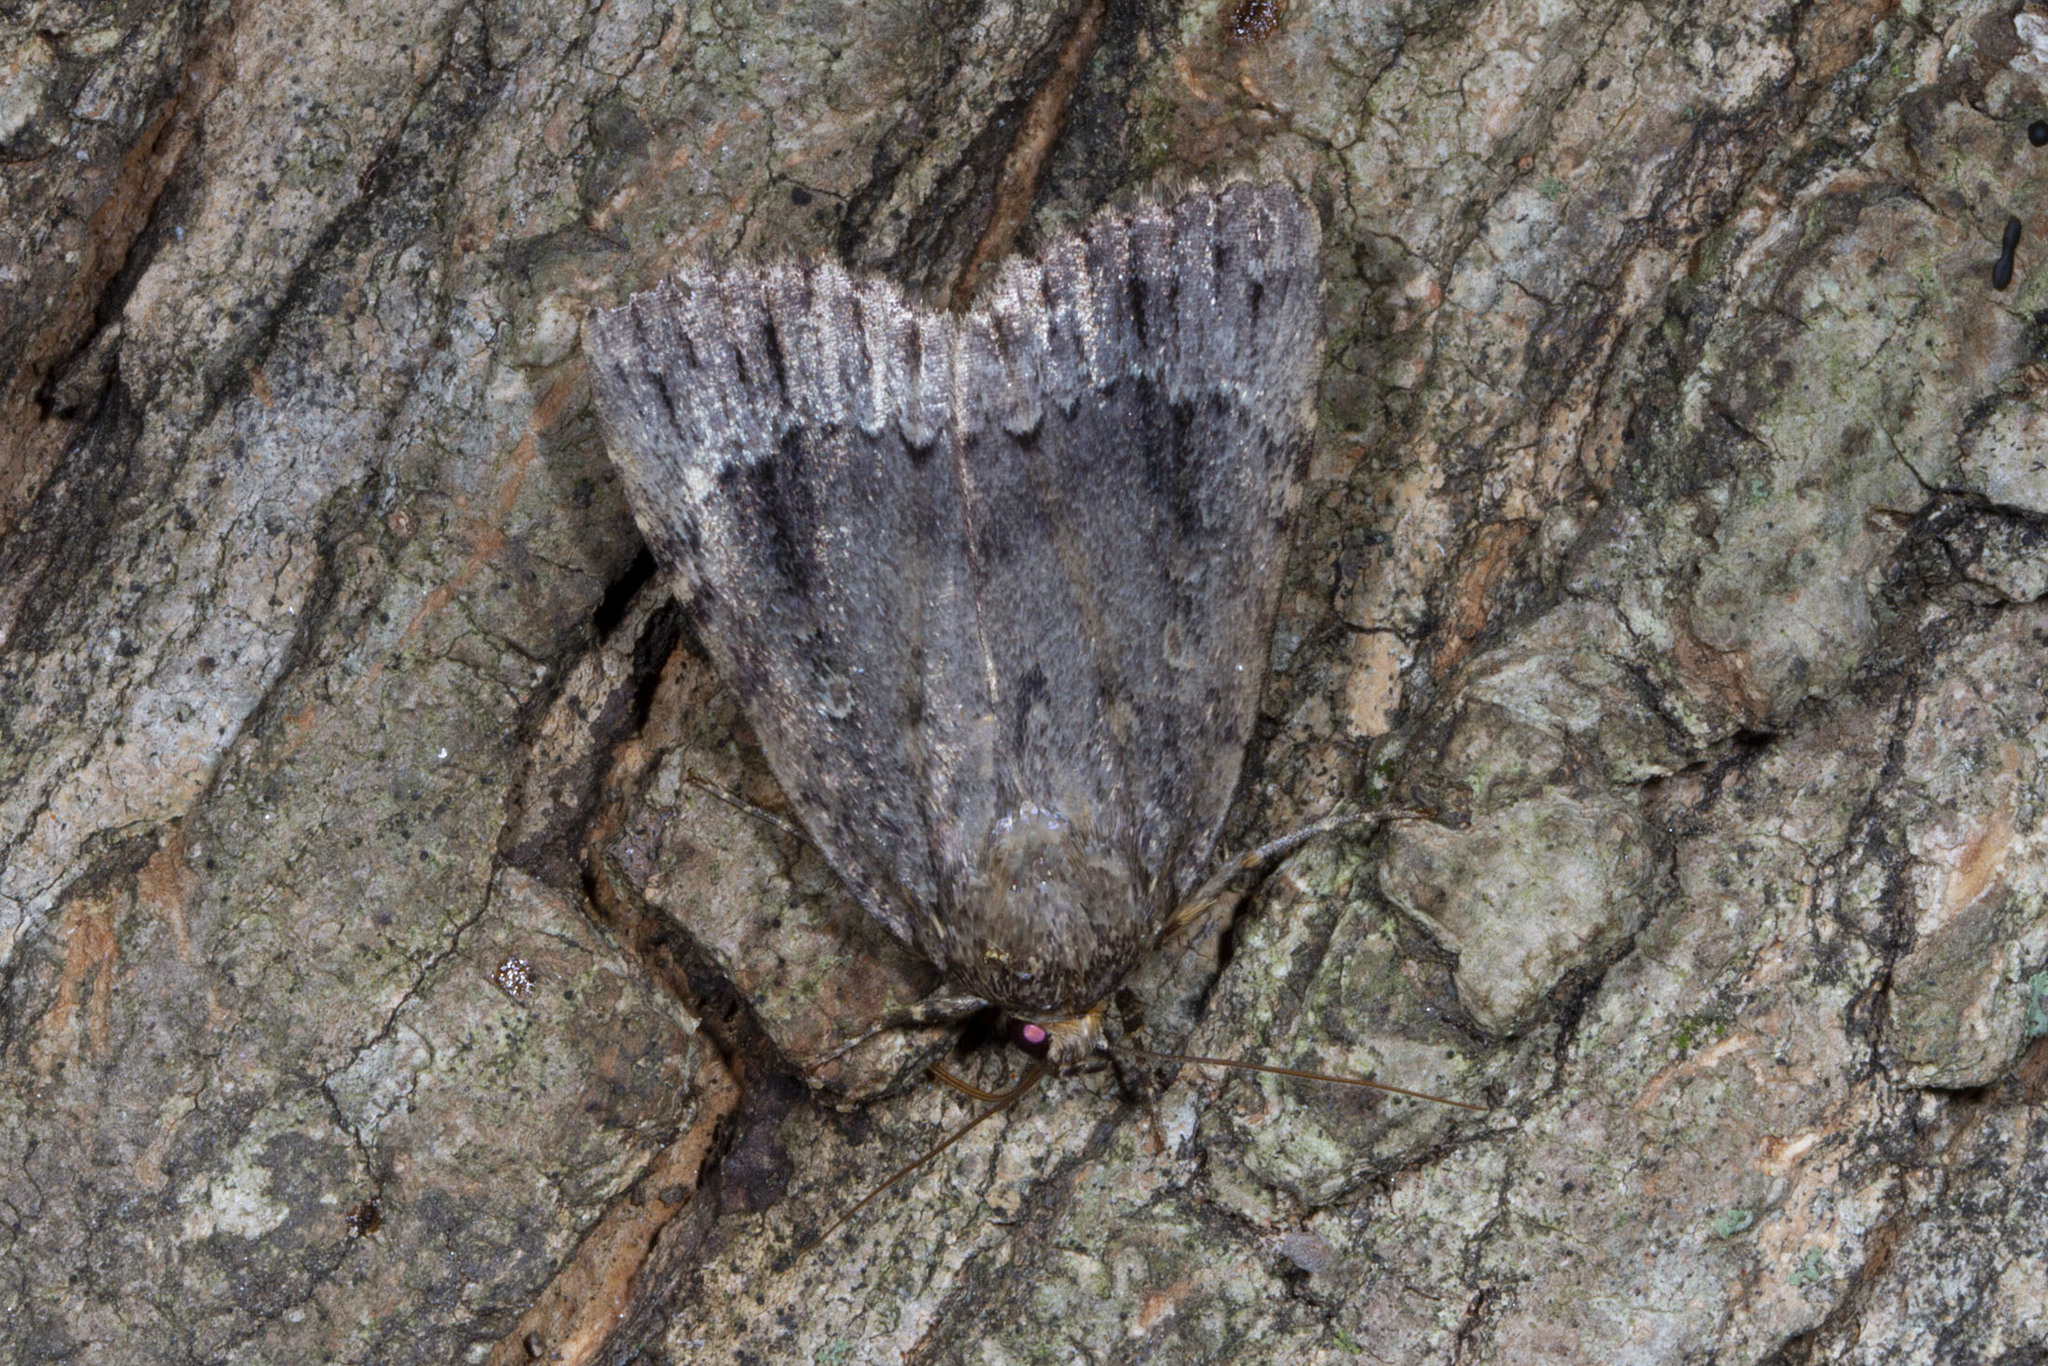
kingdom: Animalia
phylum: Arthropoda
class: Insecta
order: Lepidoptera
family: Noctuidae
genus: Amphipyra
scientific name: Amphipyra pyramidoides
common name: American copper underwing
